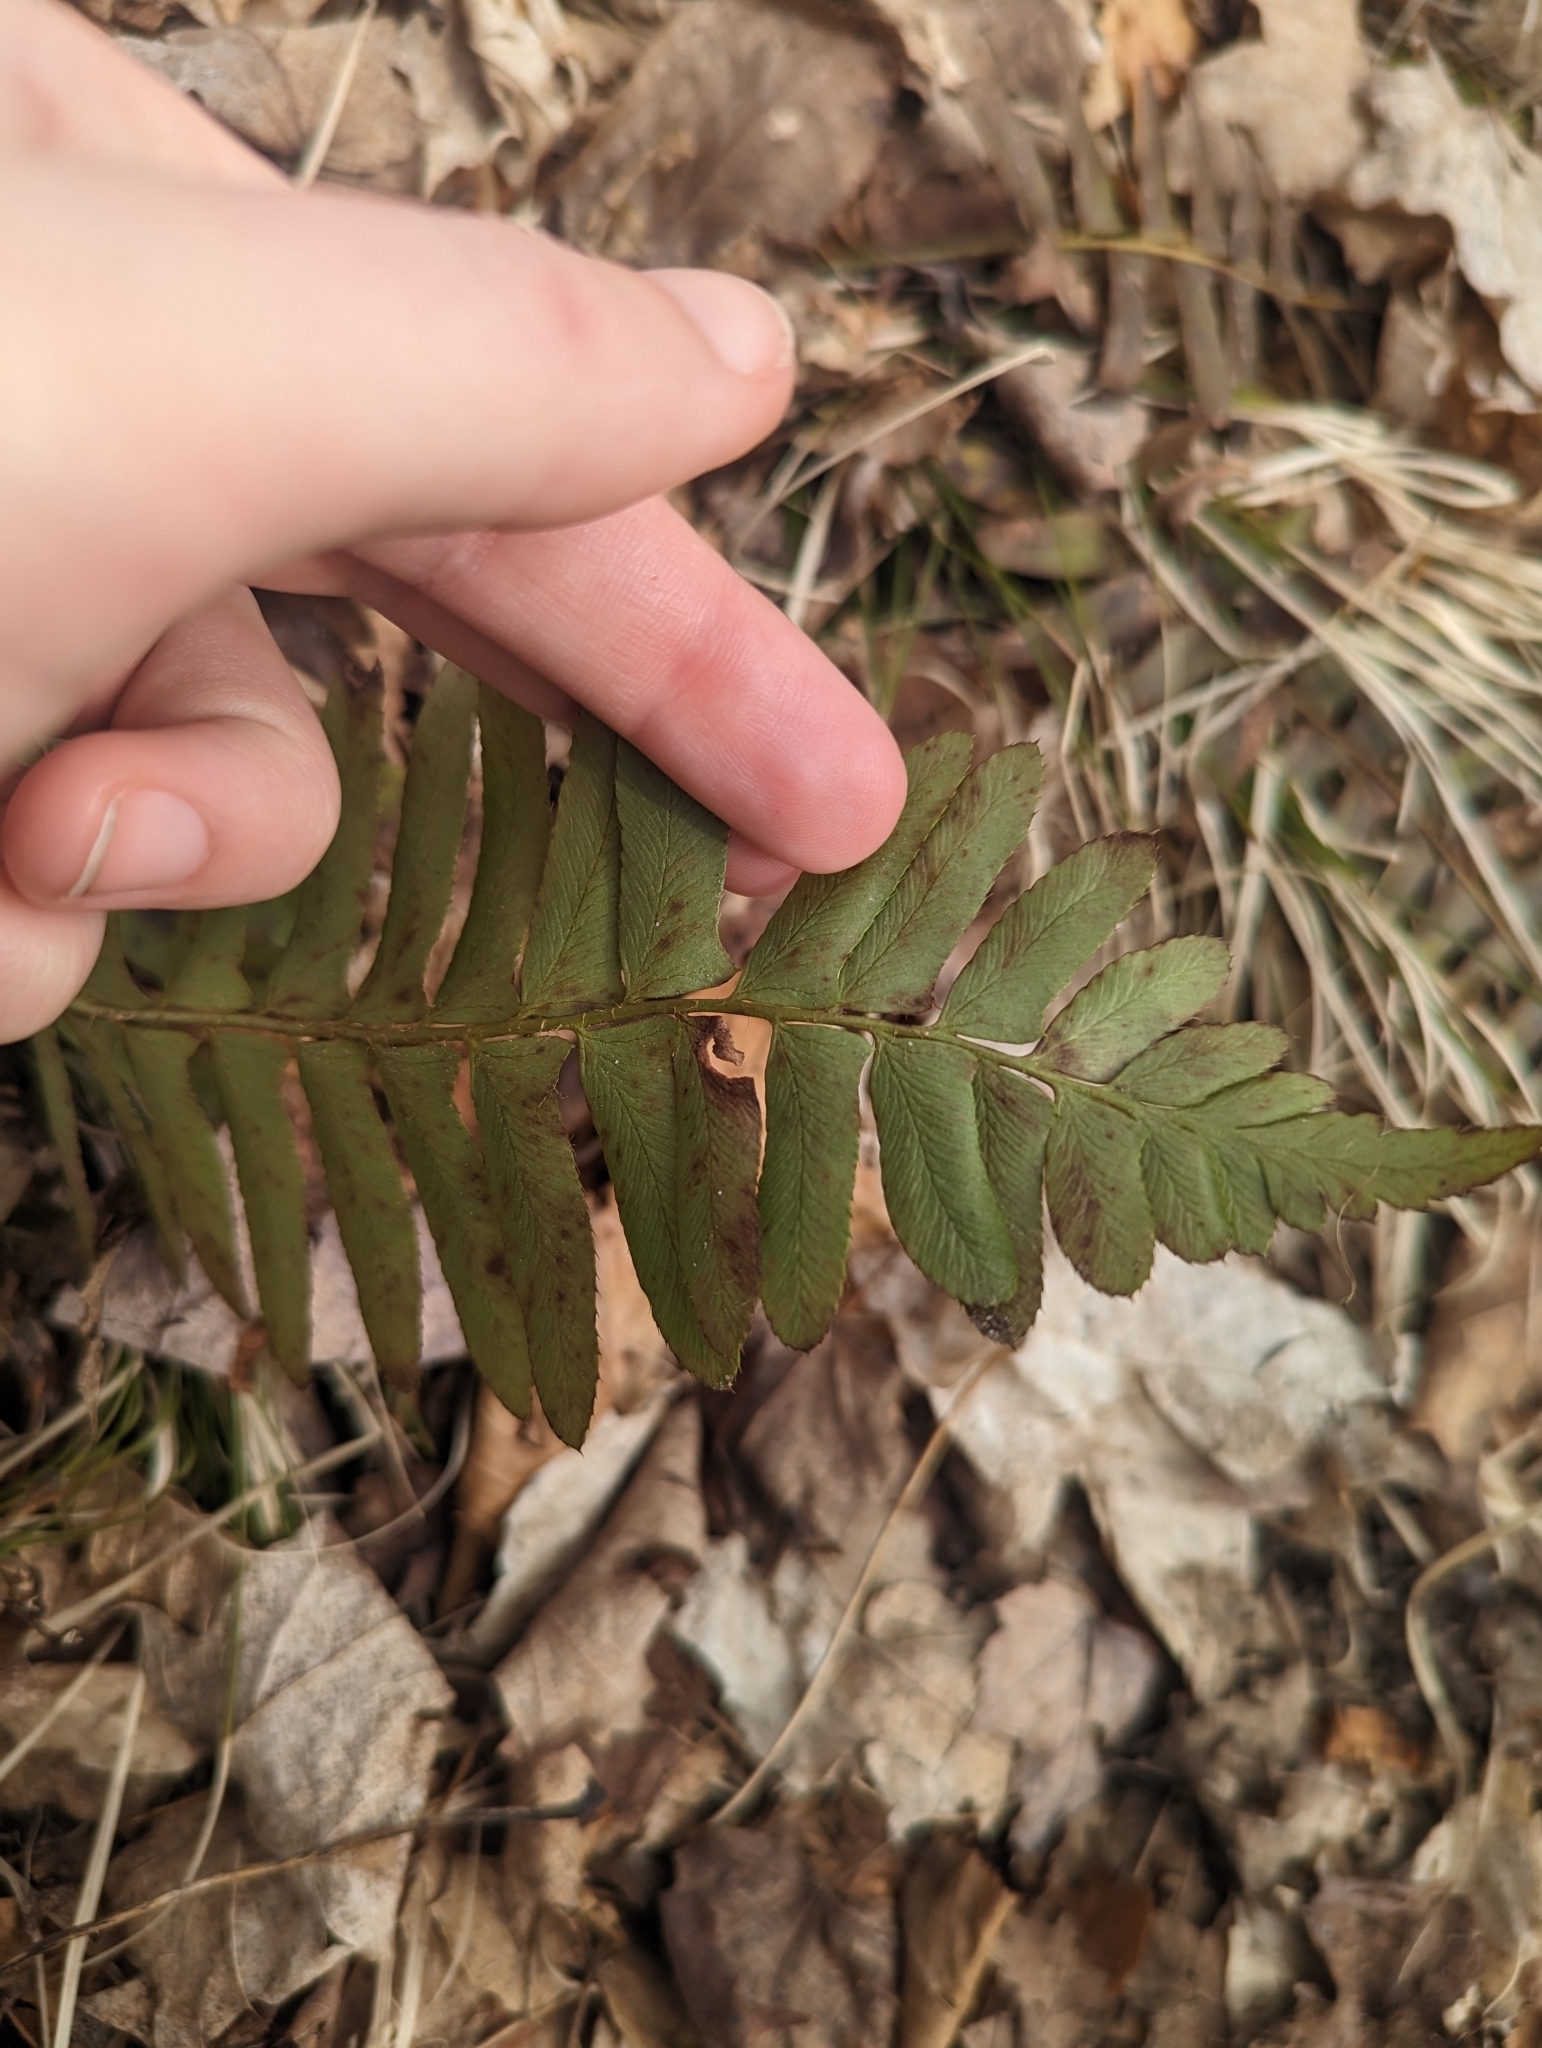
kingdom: Plantae
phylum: Tracheophyta
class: Polypodiopsida
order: Polypodiales
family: Dryopteridaceae
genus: Polystichum
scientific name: Polystichum acrostichoides
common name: Christmas fern
